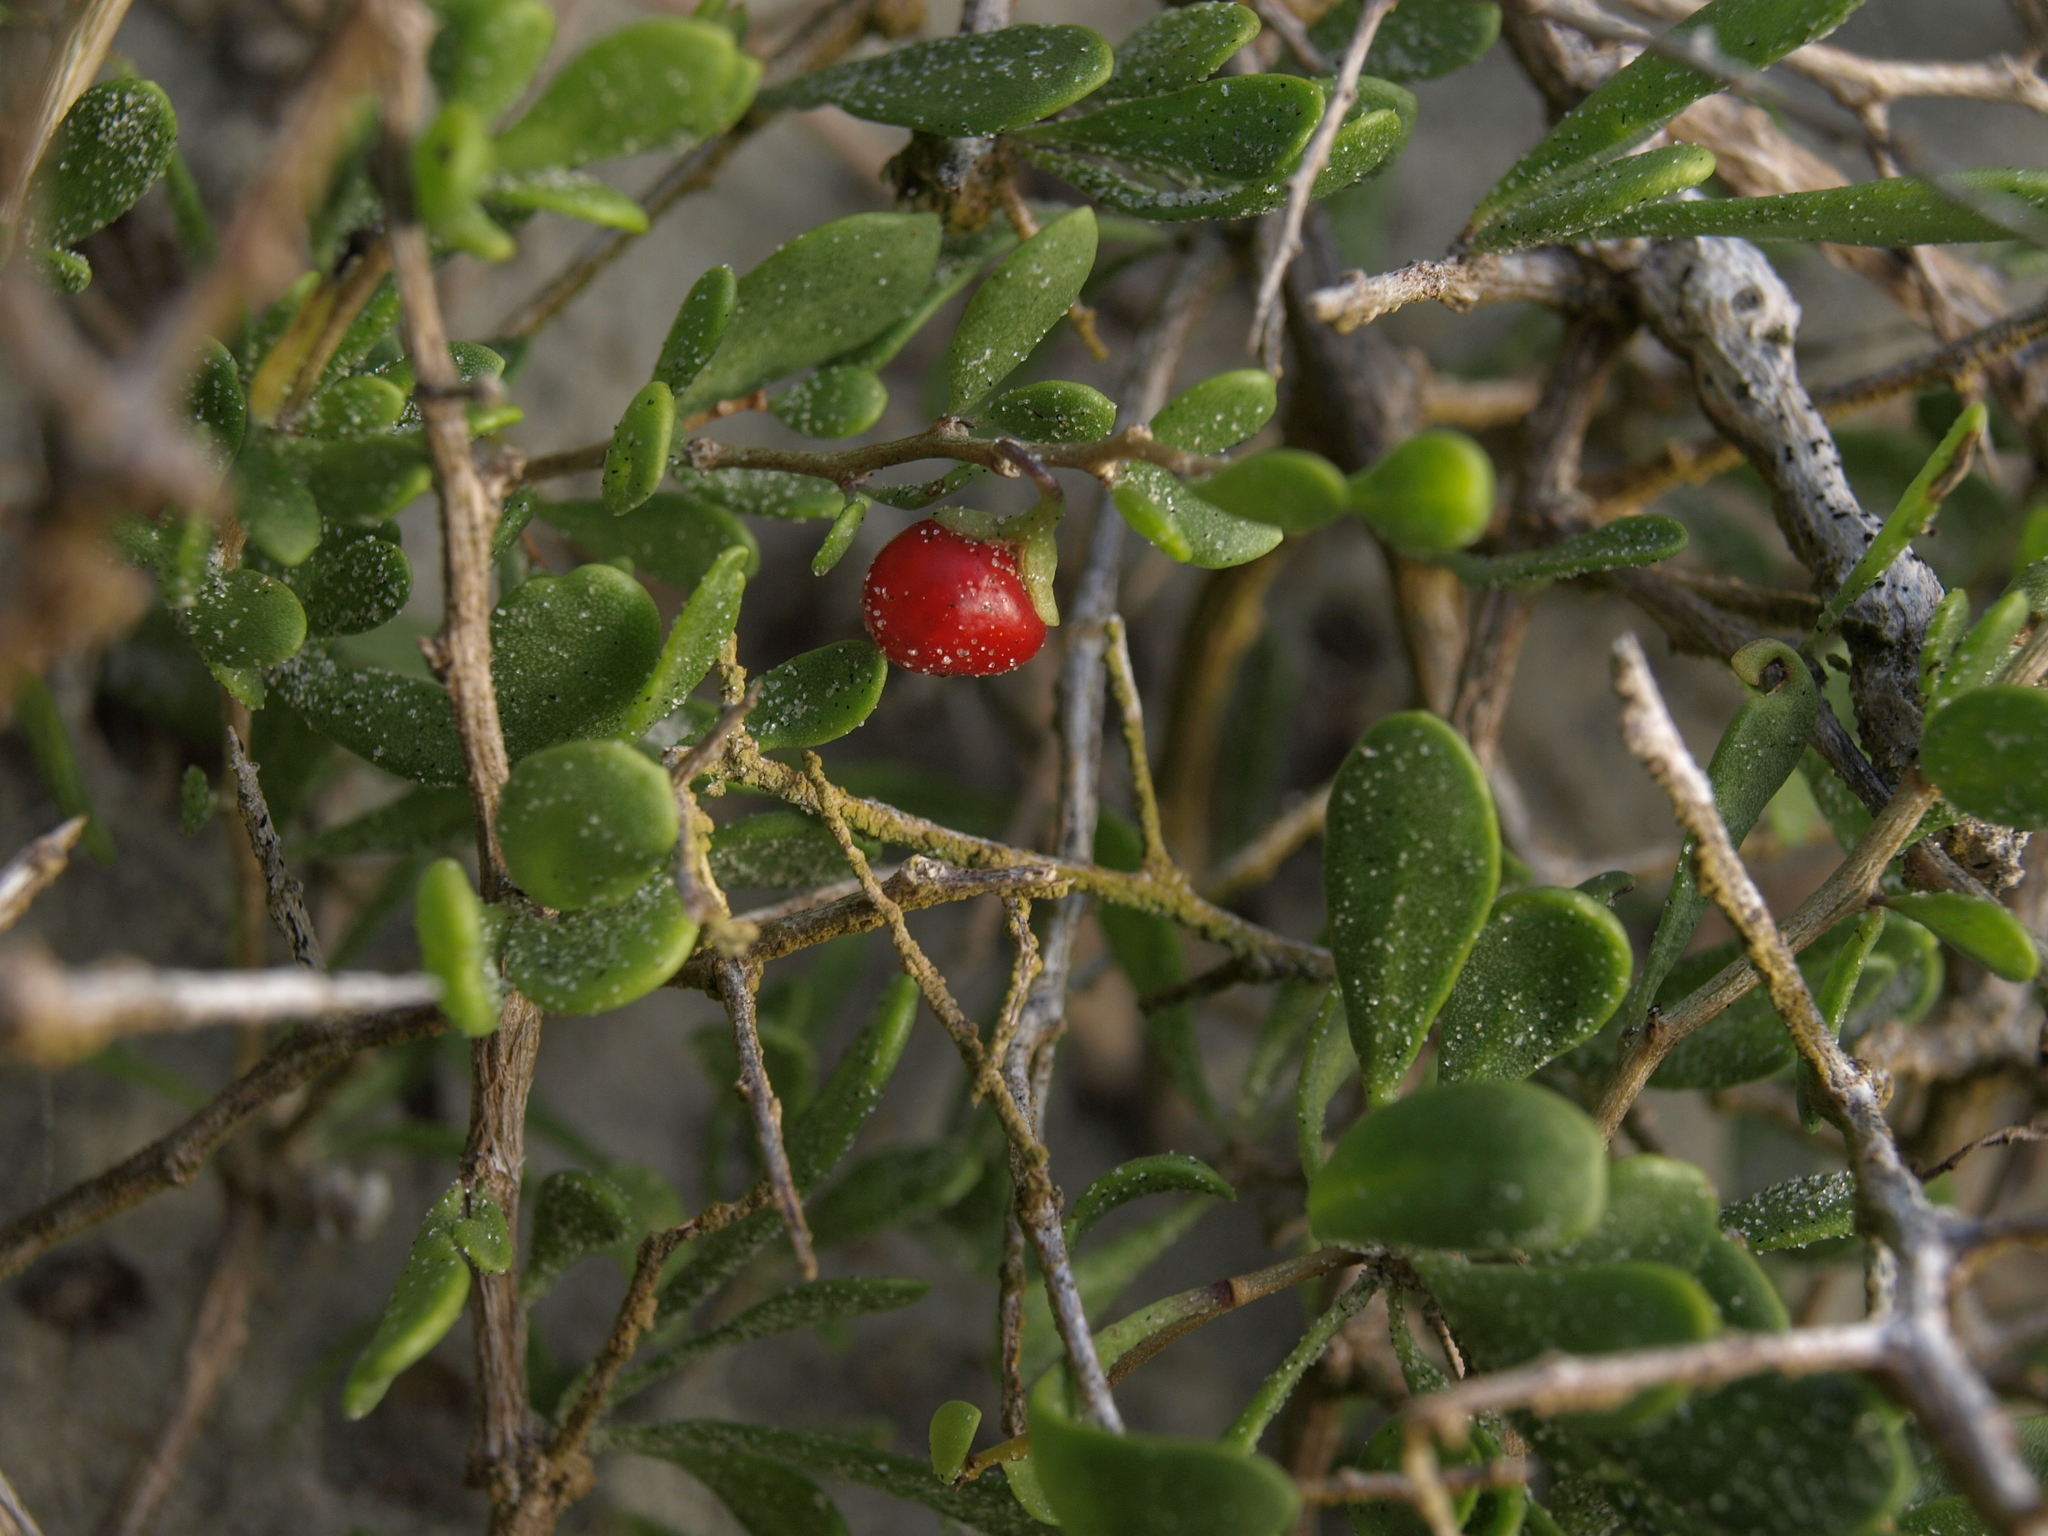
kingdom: Plantae
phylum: Tracheophyta
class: Magnoliopsida
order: Solanales
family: Solanaceae
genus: Lycium
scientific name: Lycium brevipes
